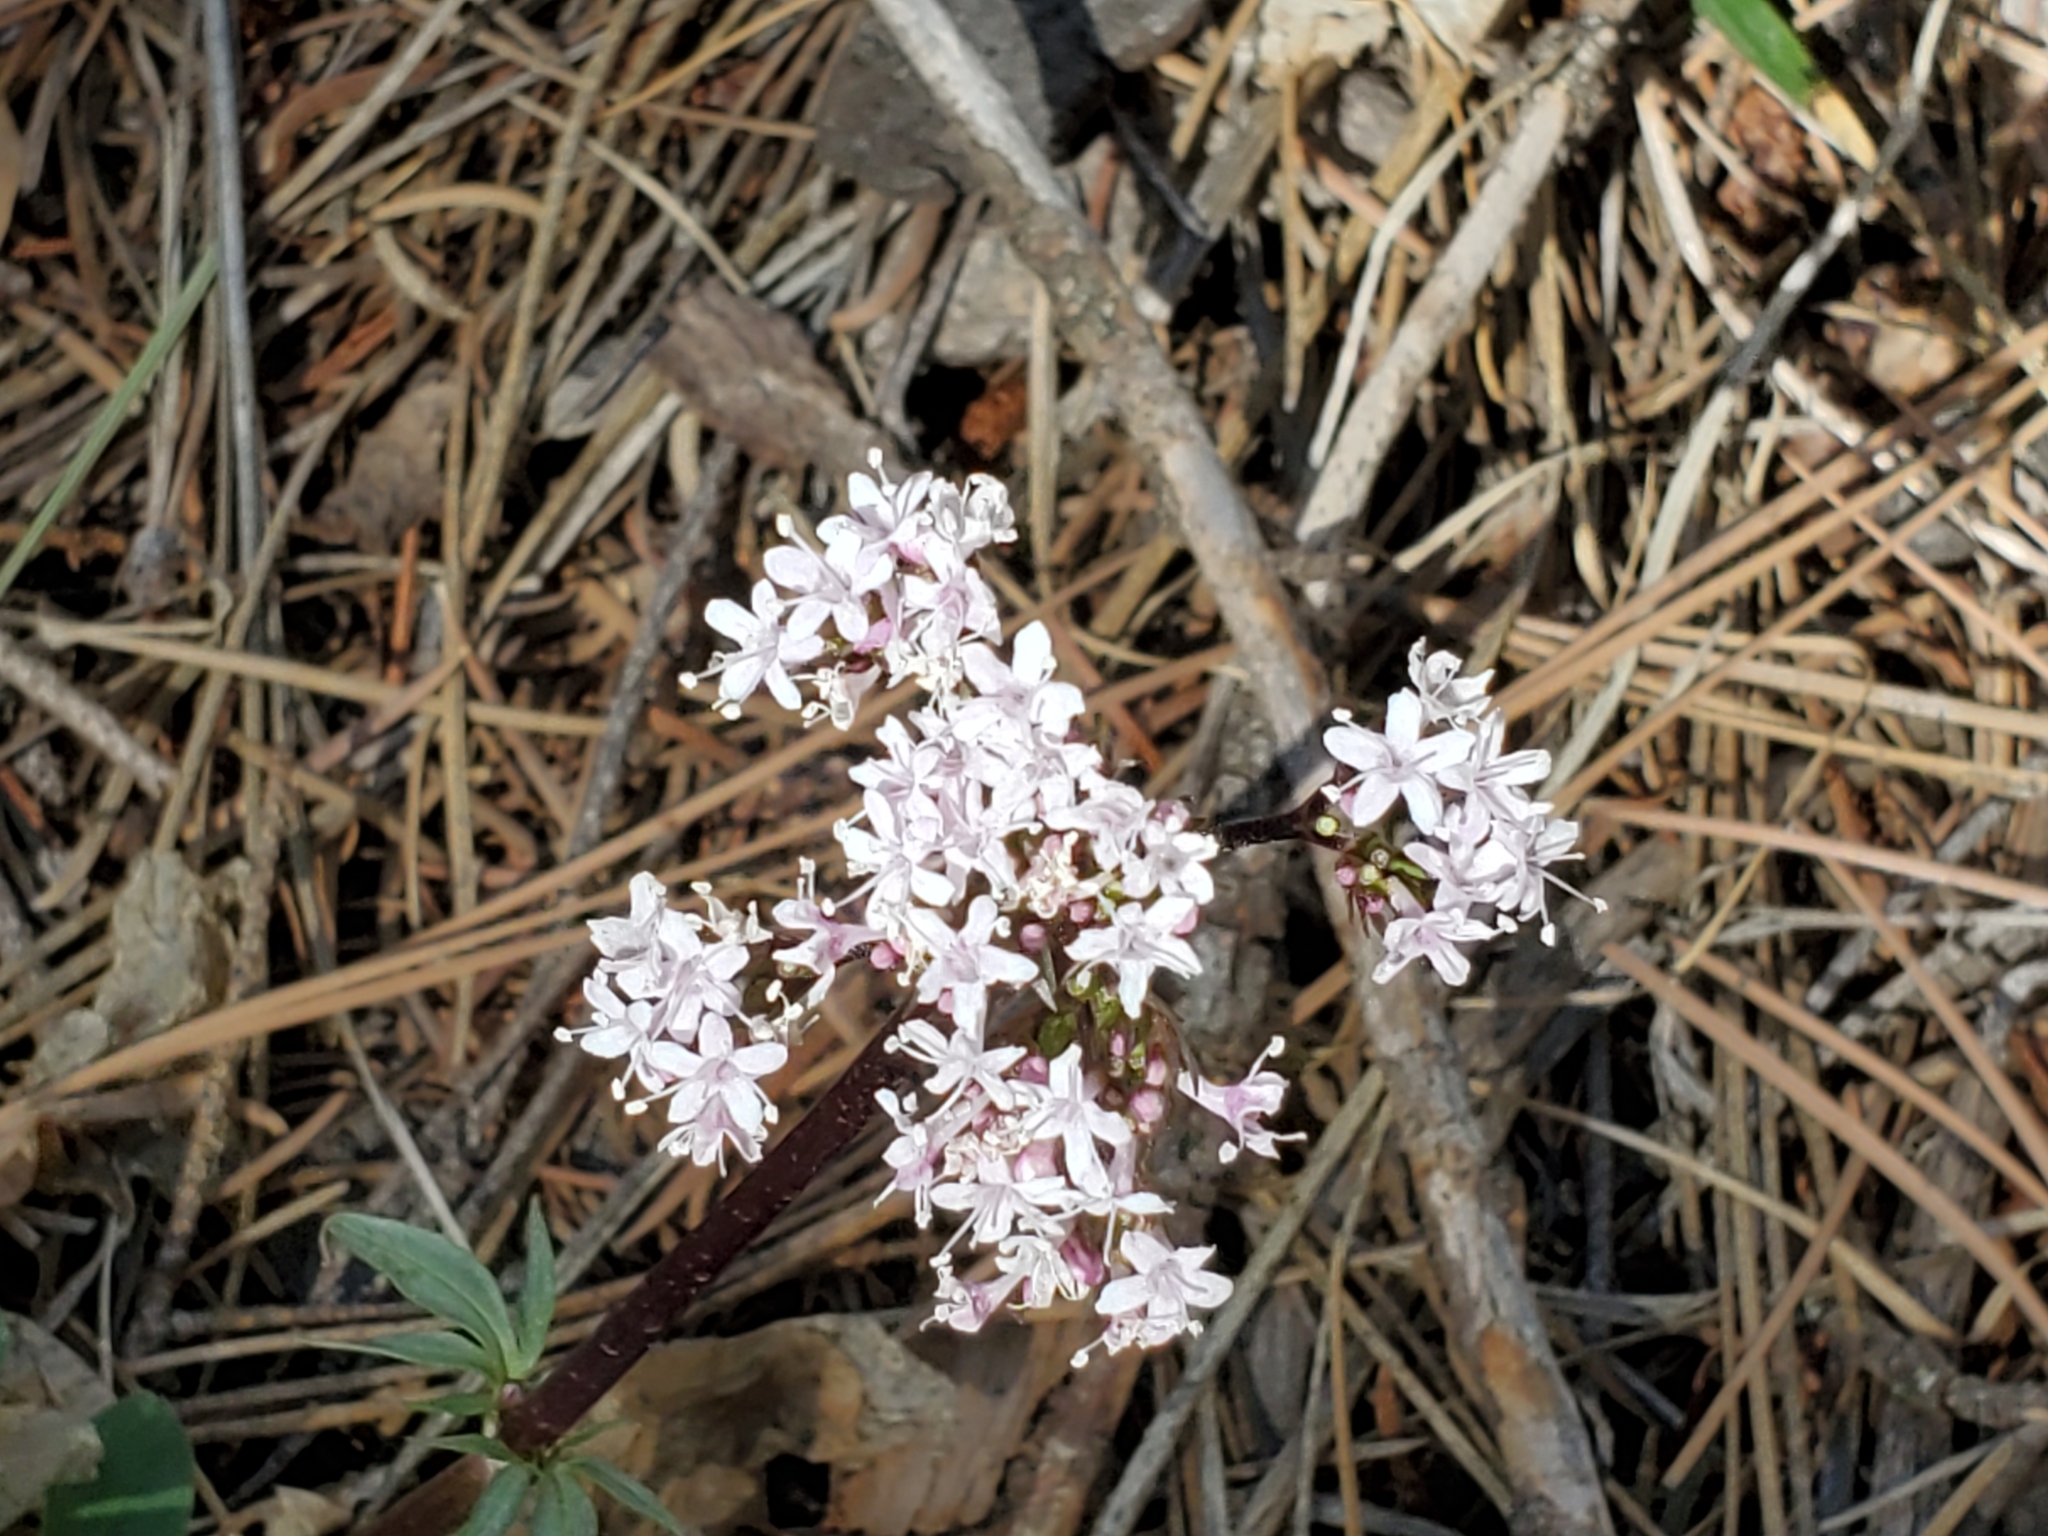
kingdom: Plantae
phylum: Tracheophyta
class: Magnoliopsida
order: Dipsacales
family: Caprifoliaceae
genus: Valeriana
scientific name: Valeriana arizonica
